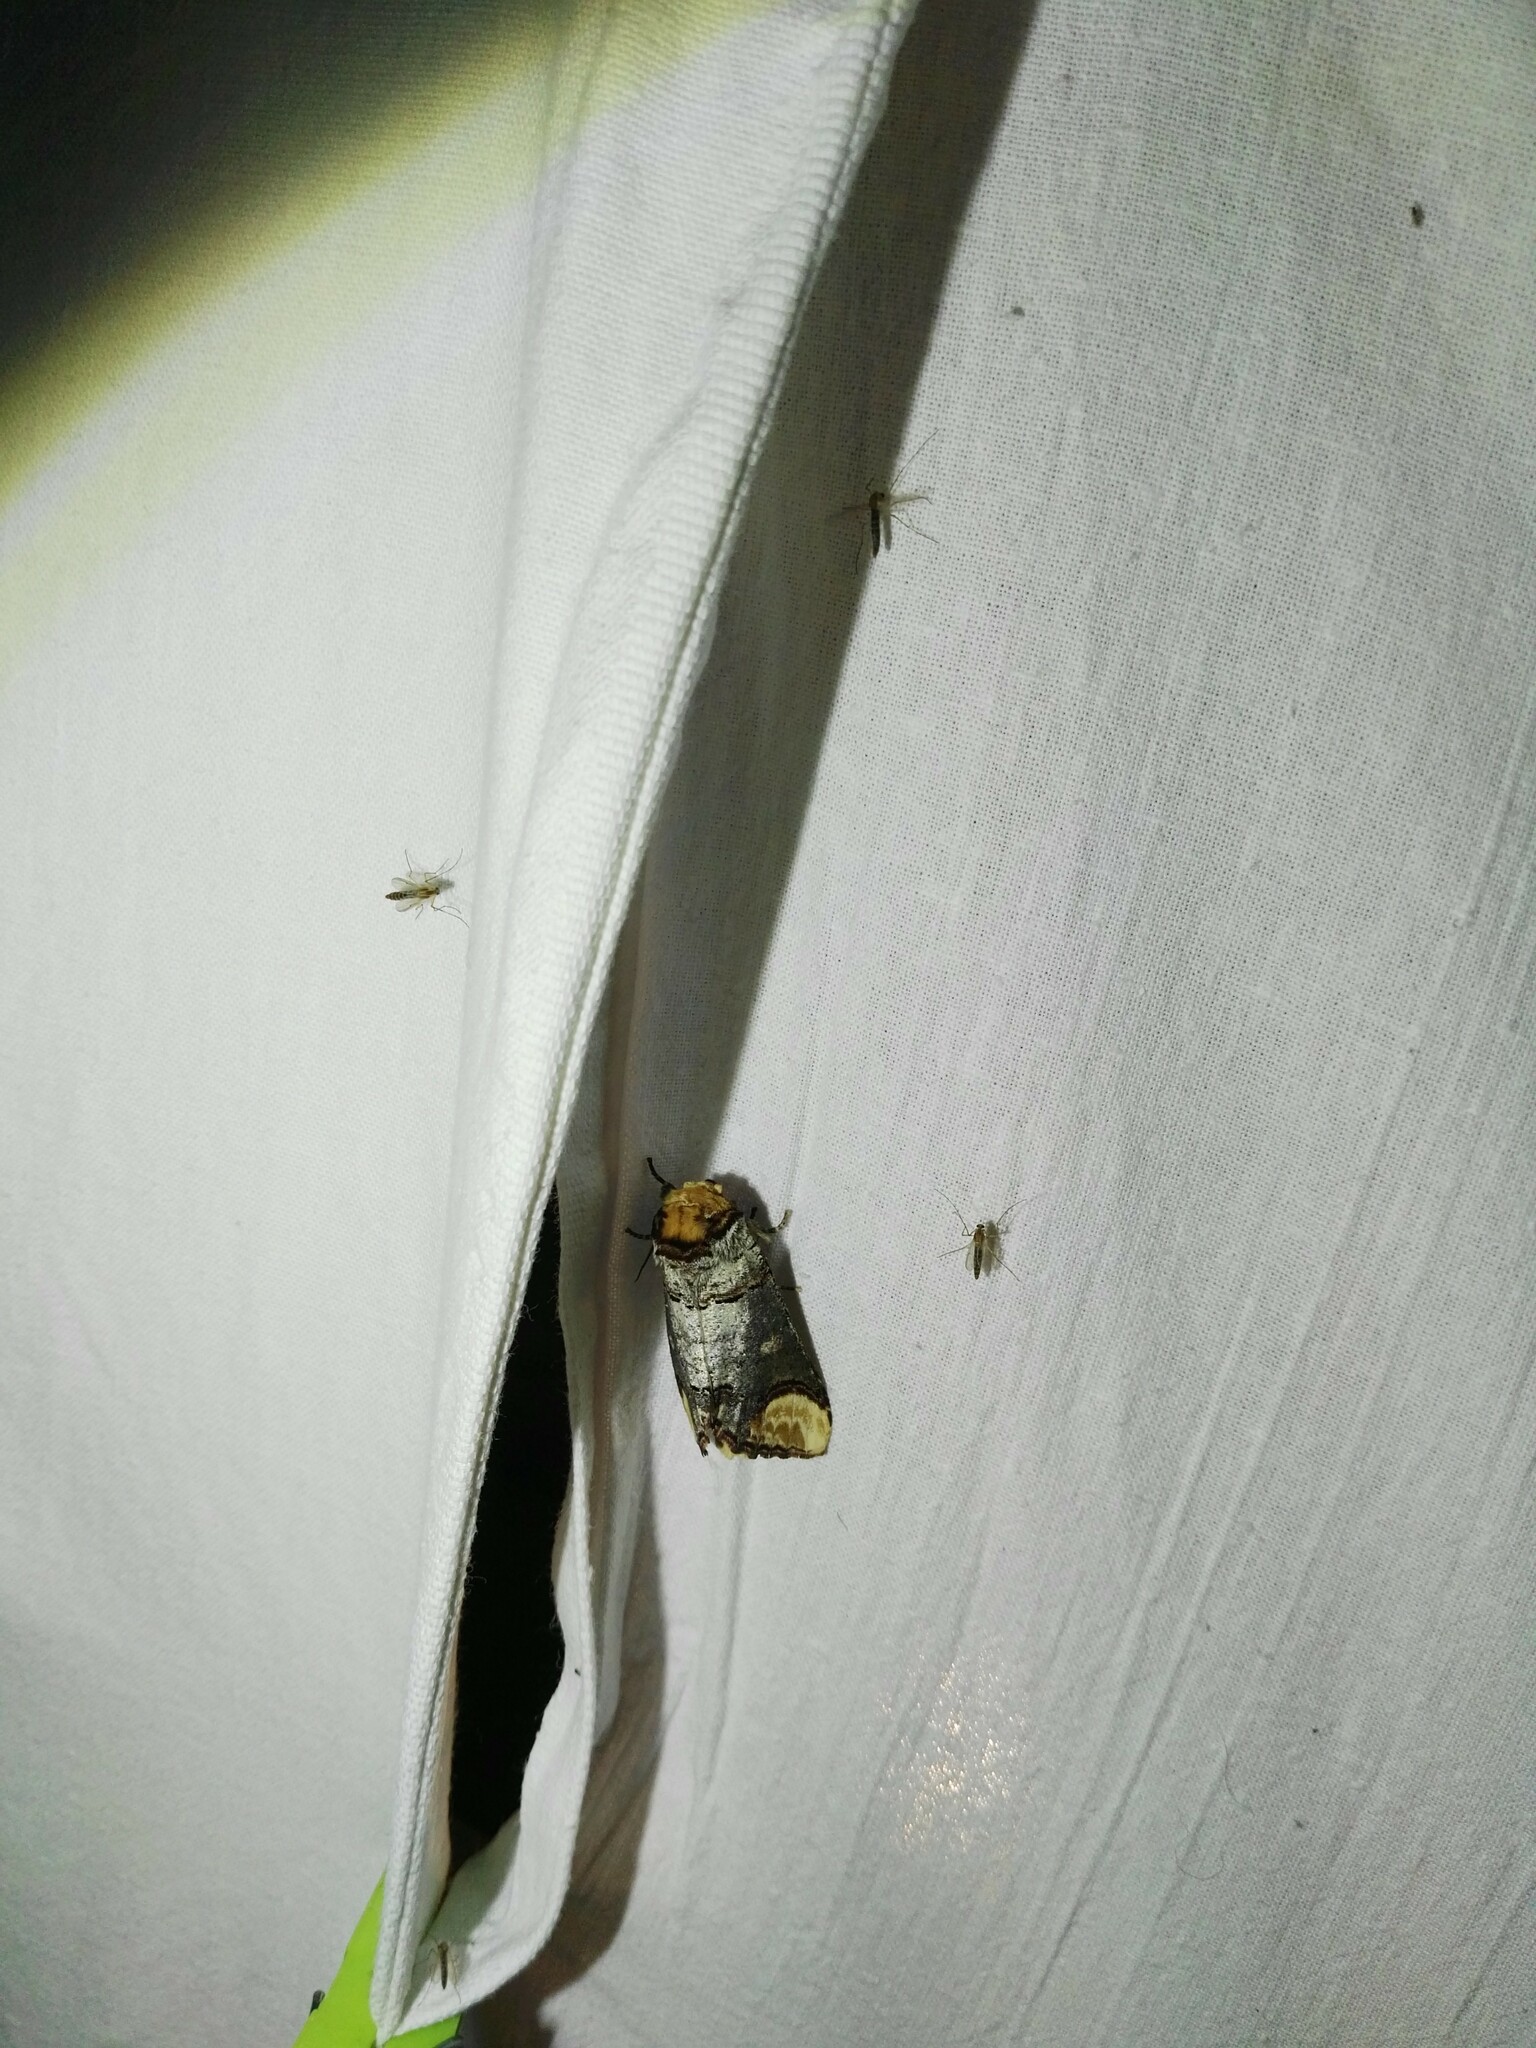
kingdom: Animalia
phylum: Arthropoda
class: Insecta
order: Lepidoptera
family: Notodontidae
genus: Phalera
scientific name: Phalera bucephala
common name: Buff-tip
